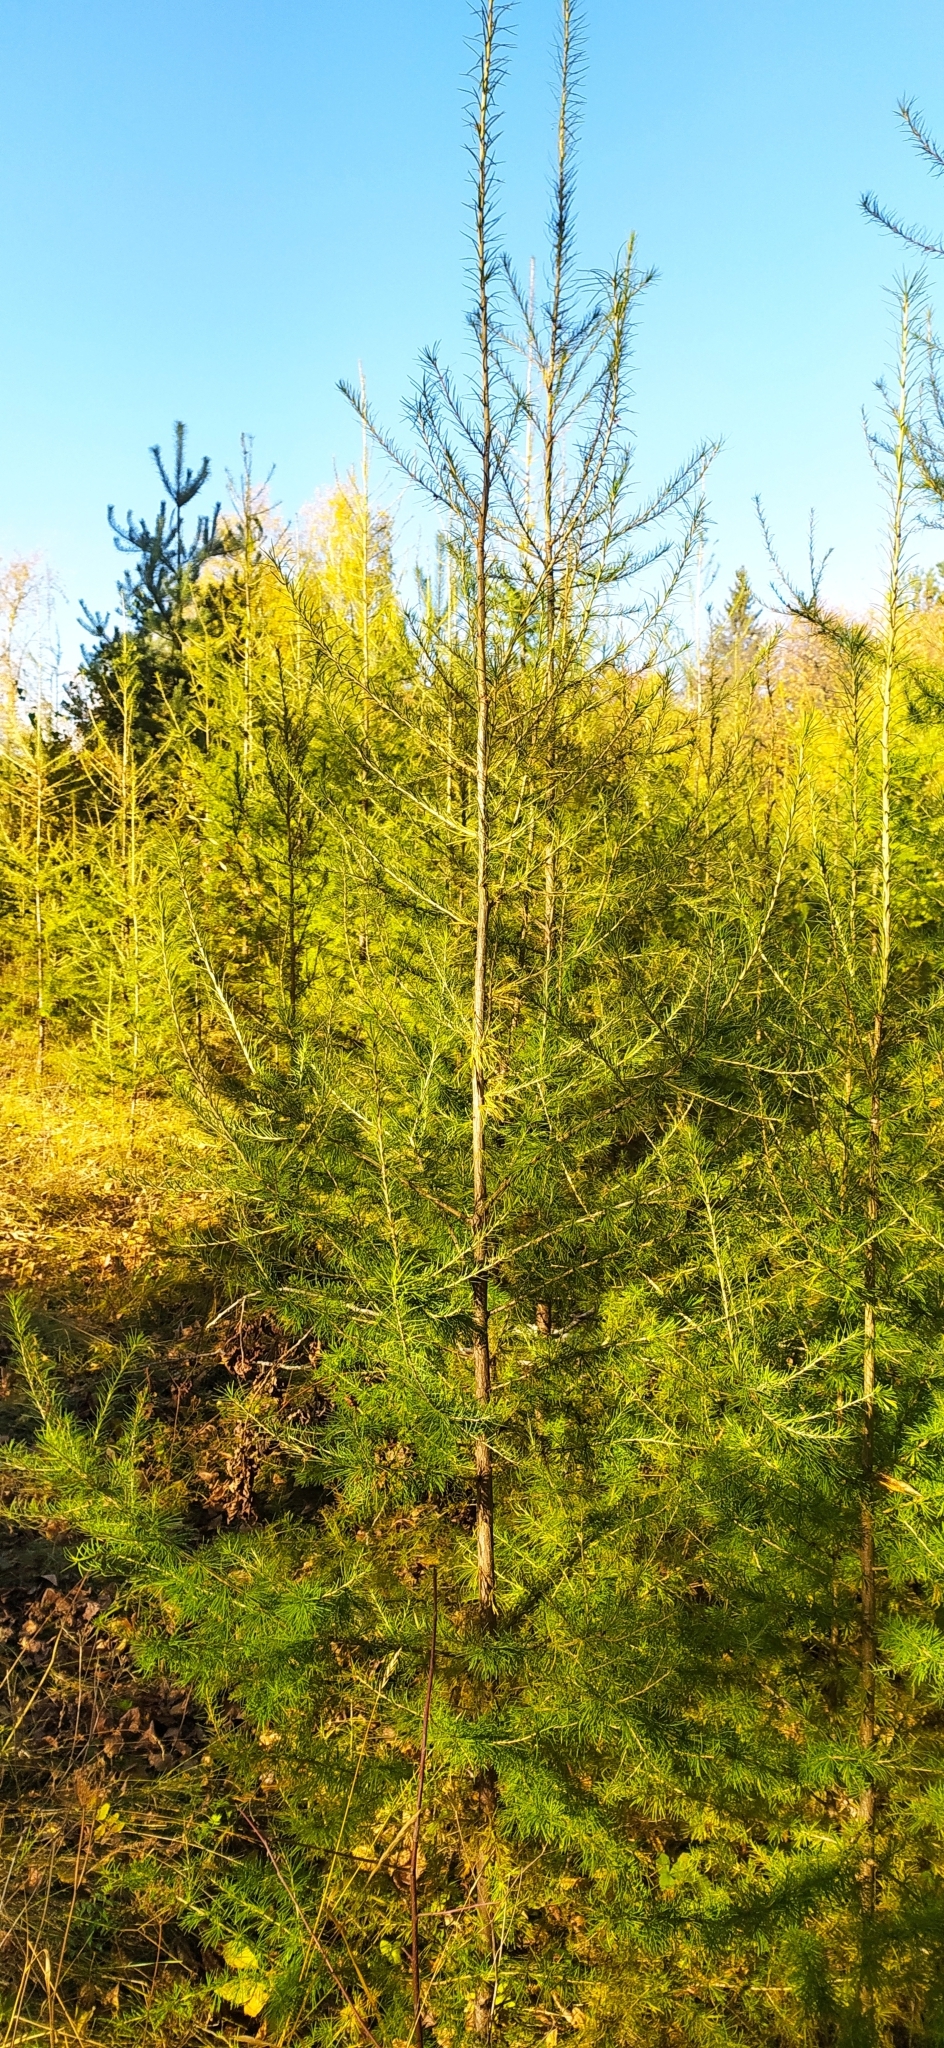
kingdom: Plantae
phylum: Tracheophyta
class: Pinopsida
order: Pinales
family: Pinaceae
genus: Larix
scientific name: Larix sibirica
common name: Siberian larch
